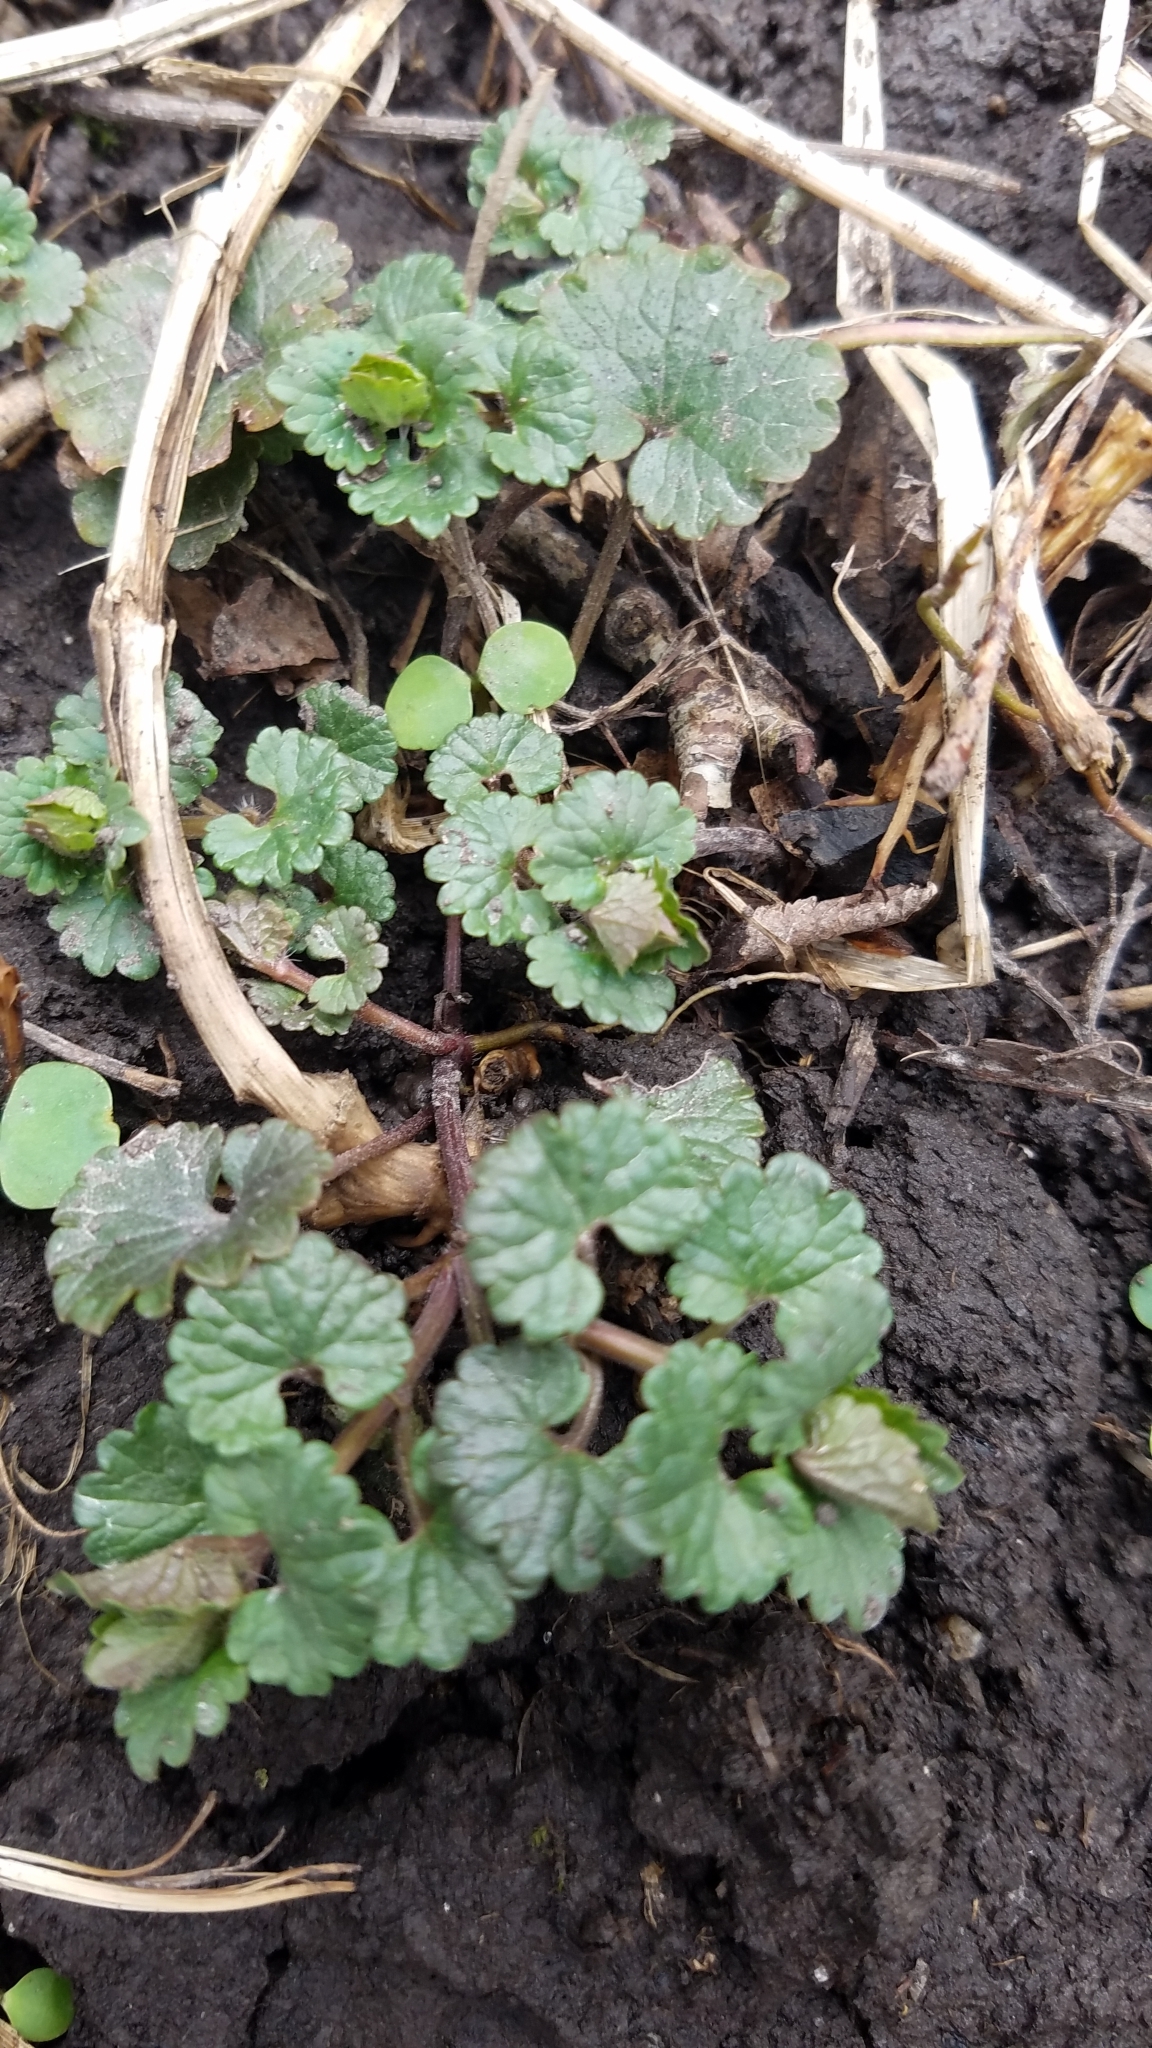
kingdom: Plantae
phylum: Tracheophyta
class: Magnoliopsida
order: Lamiales
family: Lamiaceae
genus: Glechoma
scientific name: Glechoma hederacea
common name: Ground ivy
